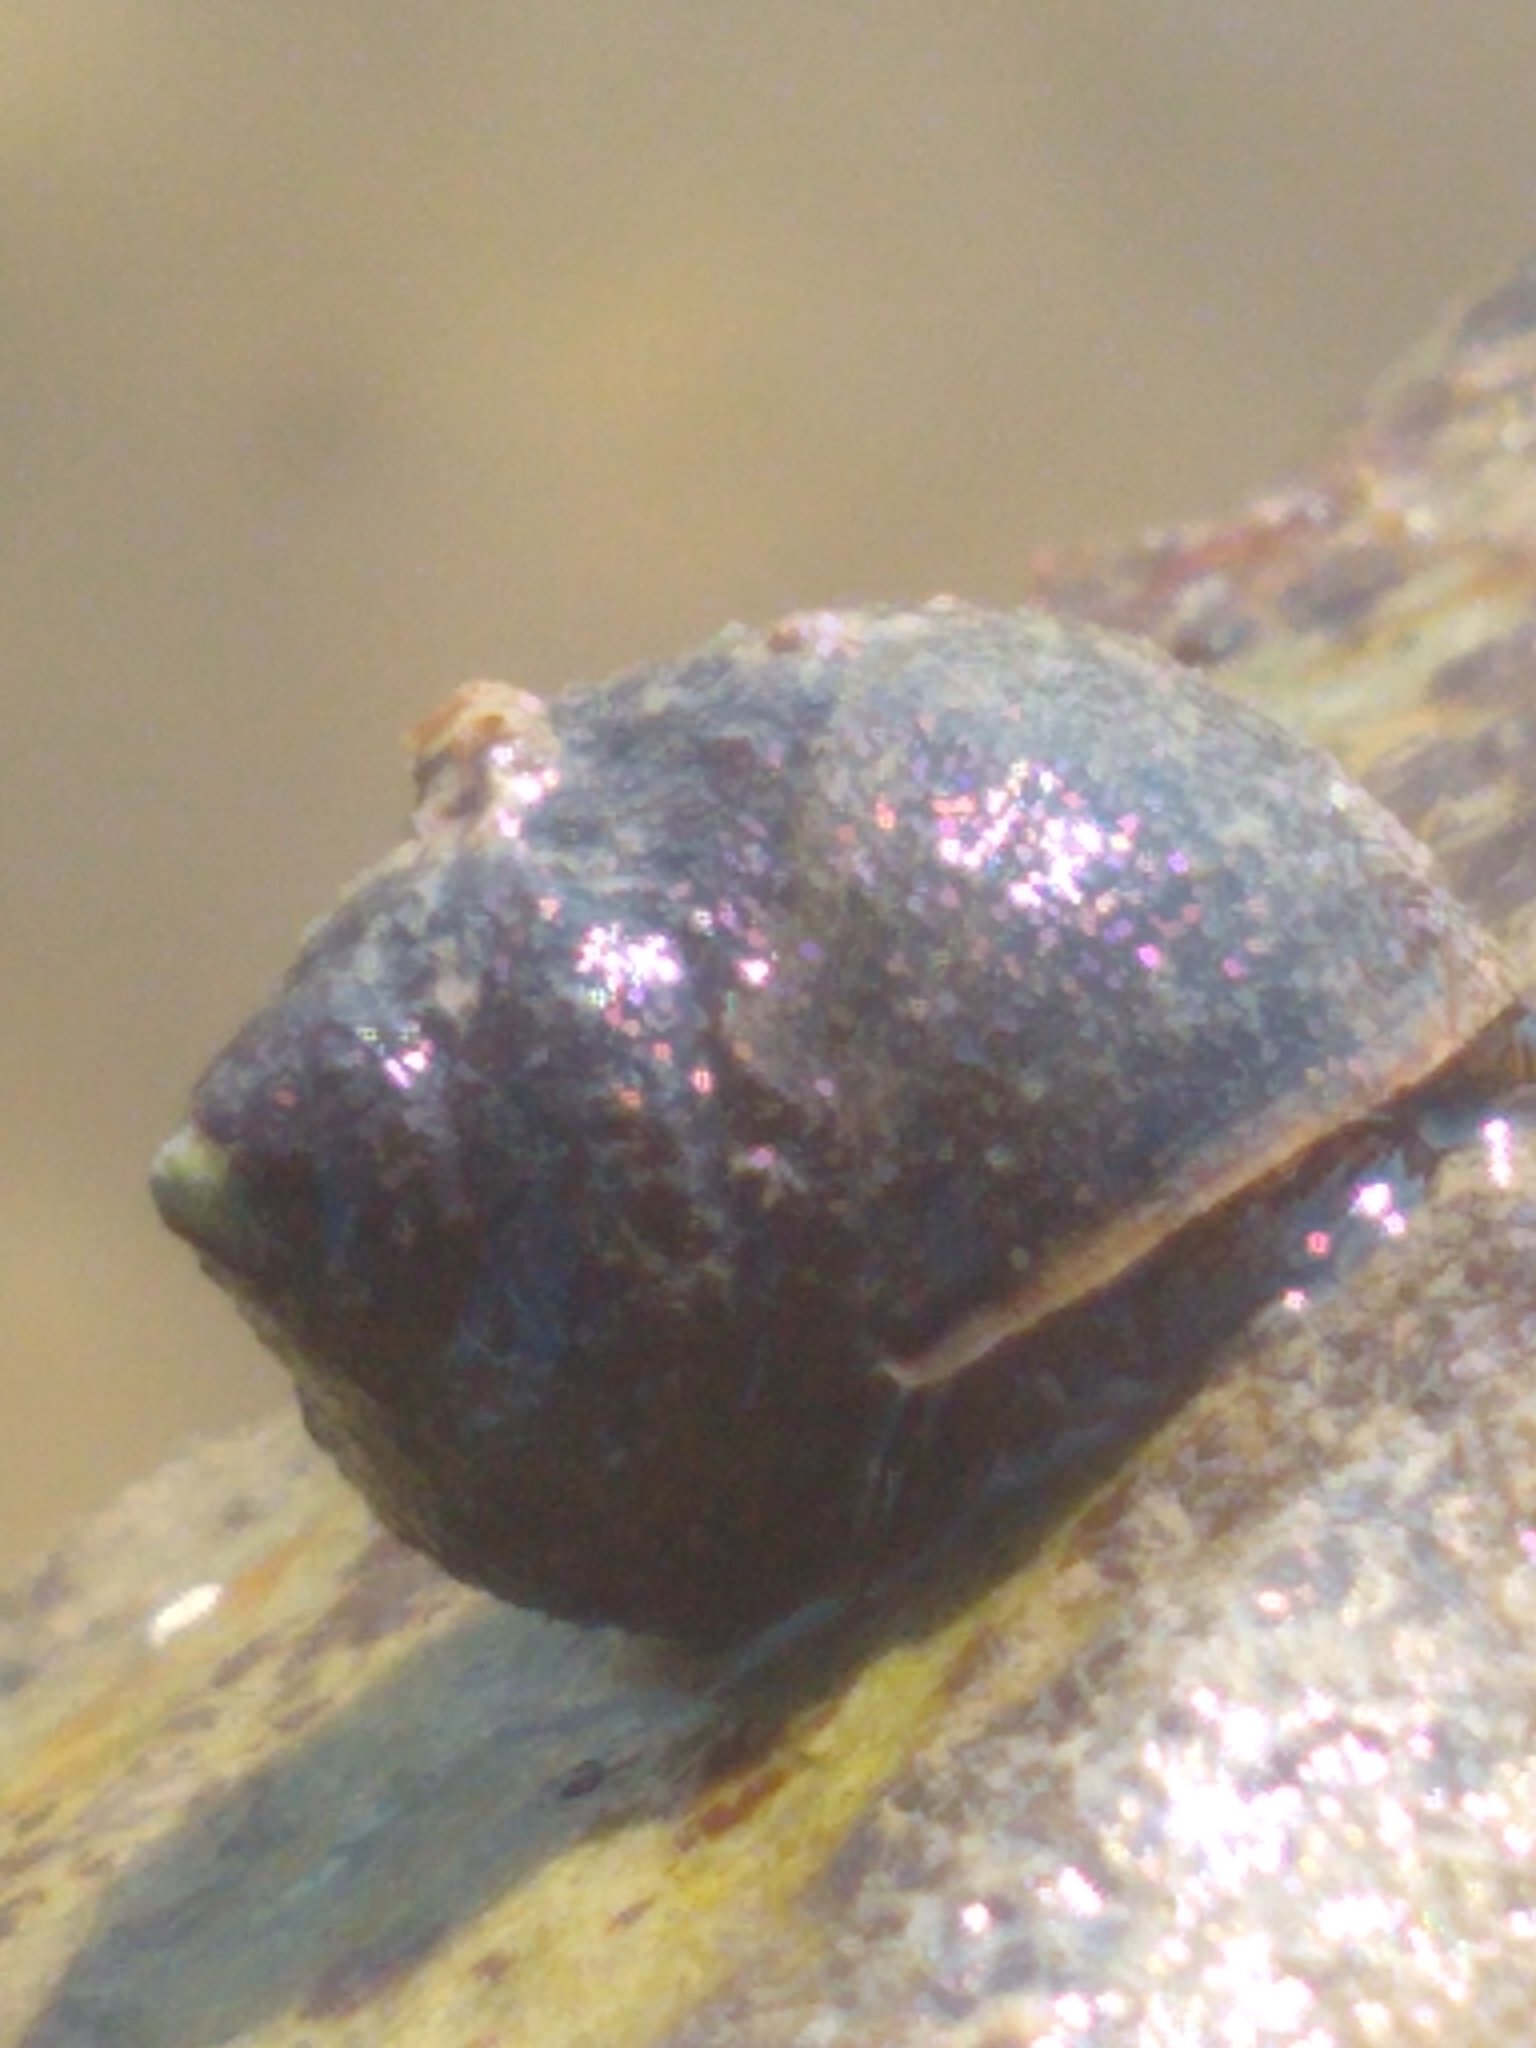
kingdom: Animalia
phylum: Mollusca
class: Gastropoda
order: Littorinimorpha
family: Littorinidae
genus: Littorina
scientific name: Littorina littorea
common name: Common periwinkle
